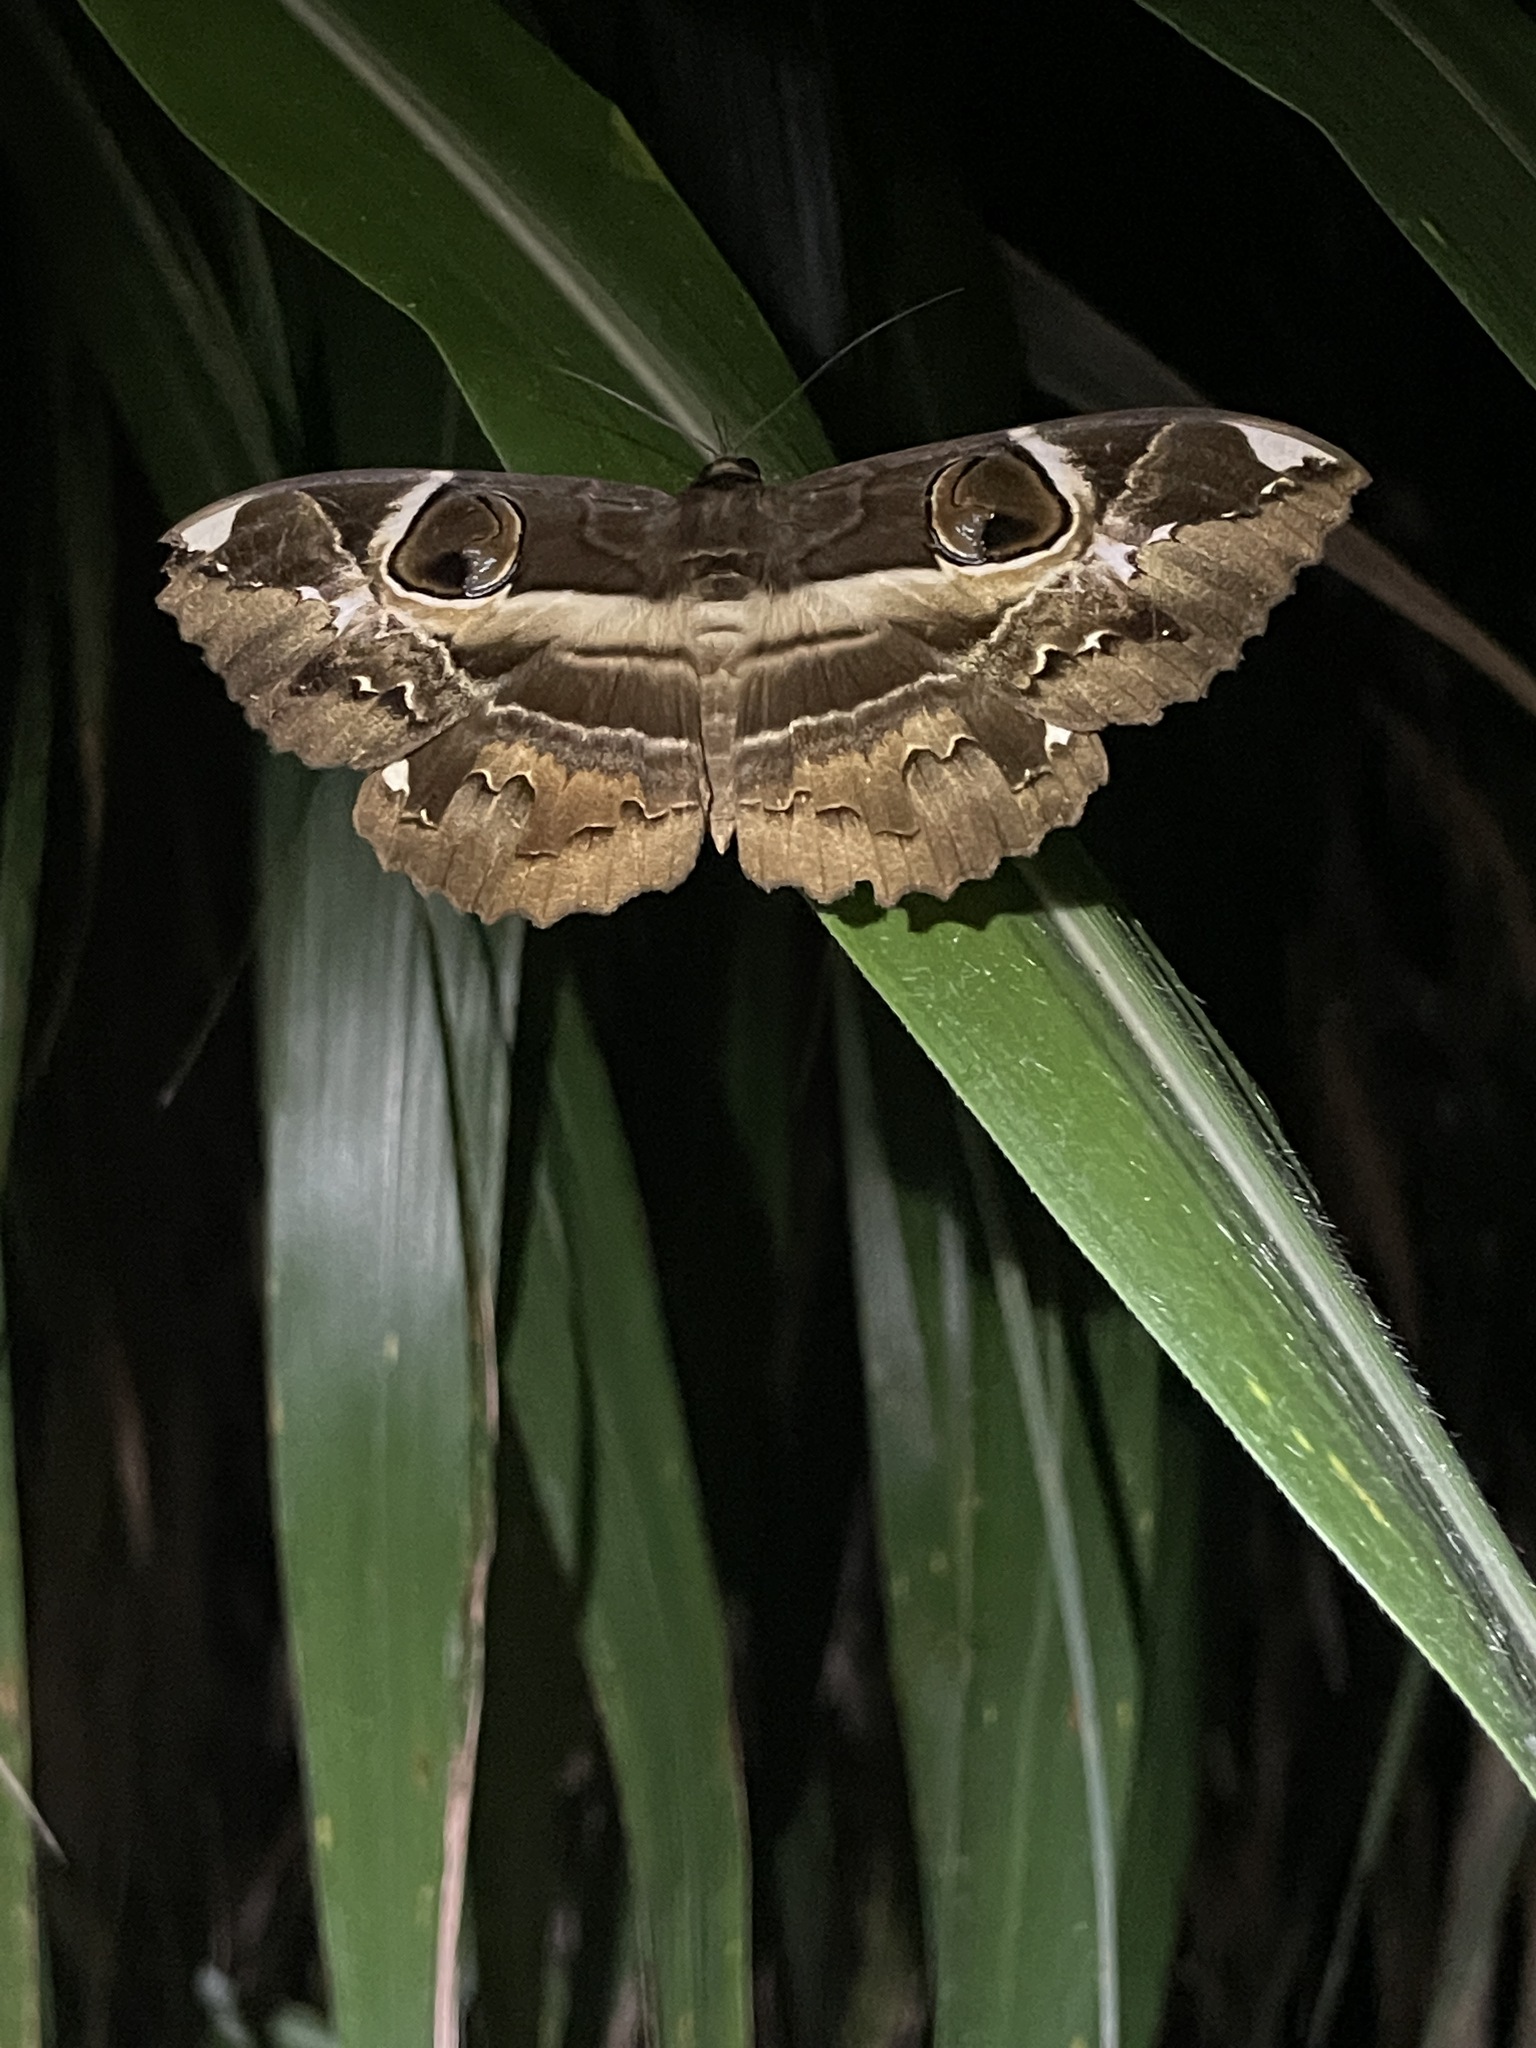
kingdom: Animalia
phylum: Arthropoda
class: Insecta
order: Lepidoptera
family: Erebidae
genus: Erebus
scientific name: Erebus ephesperis
